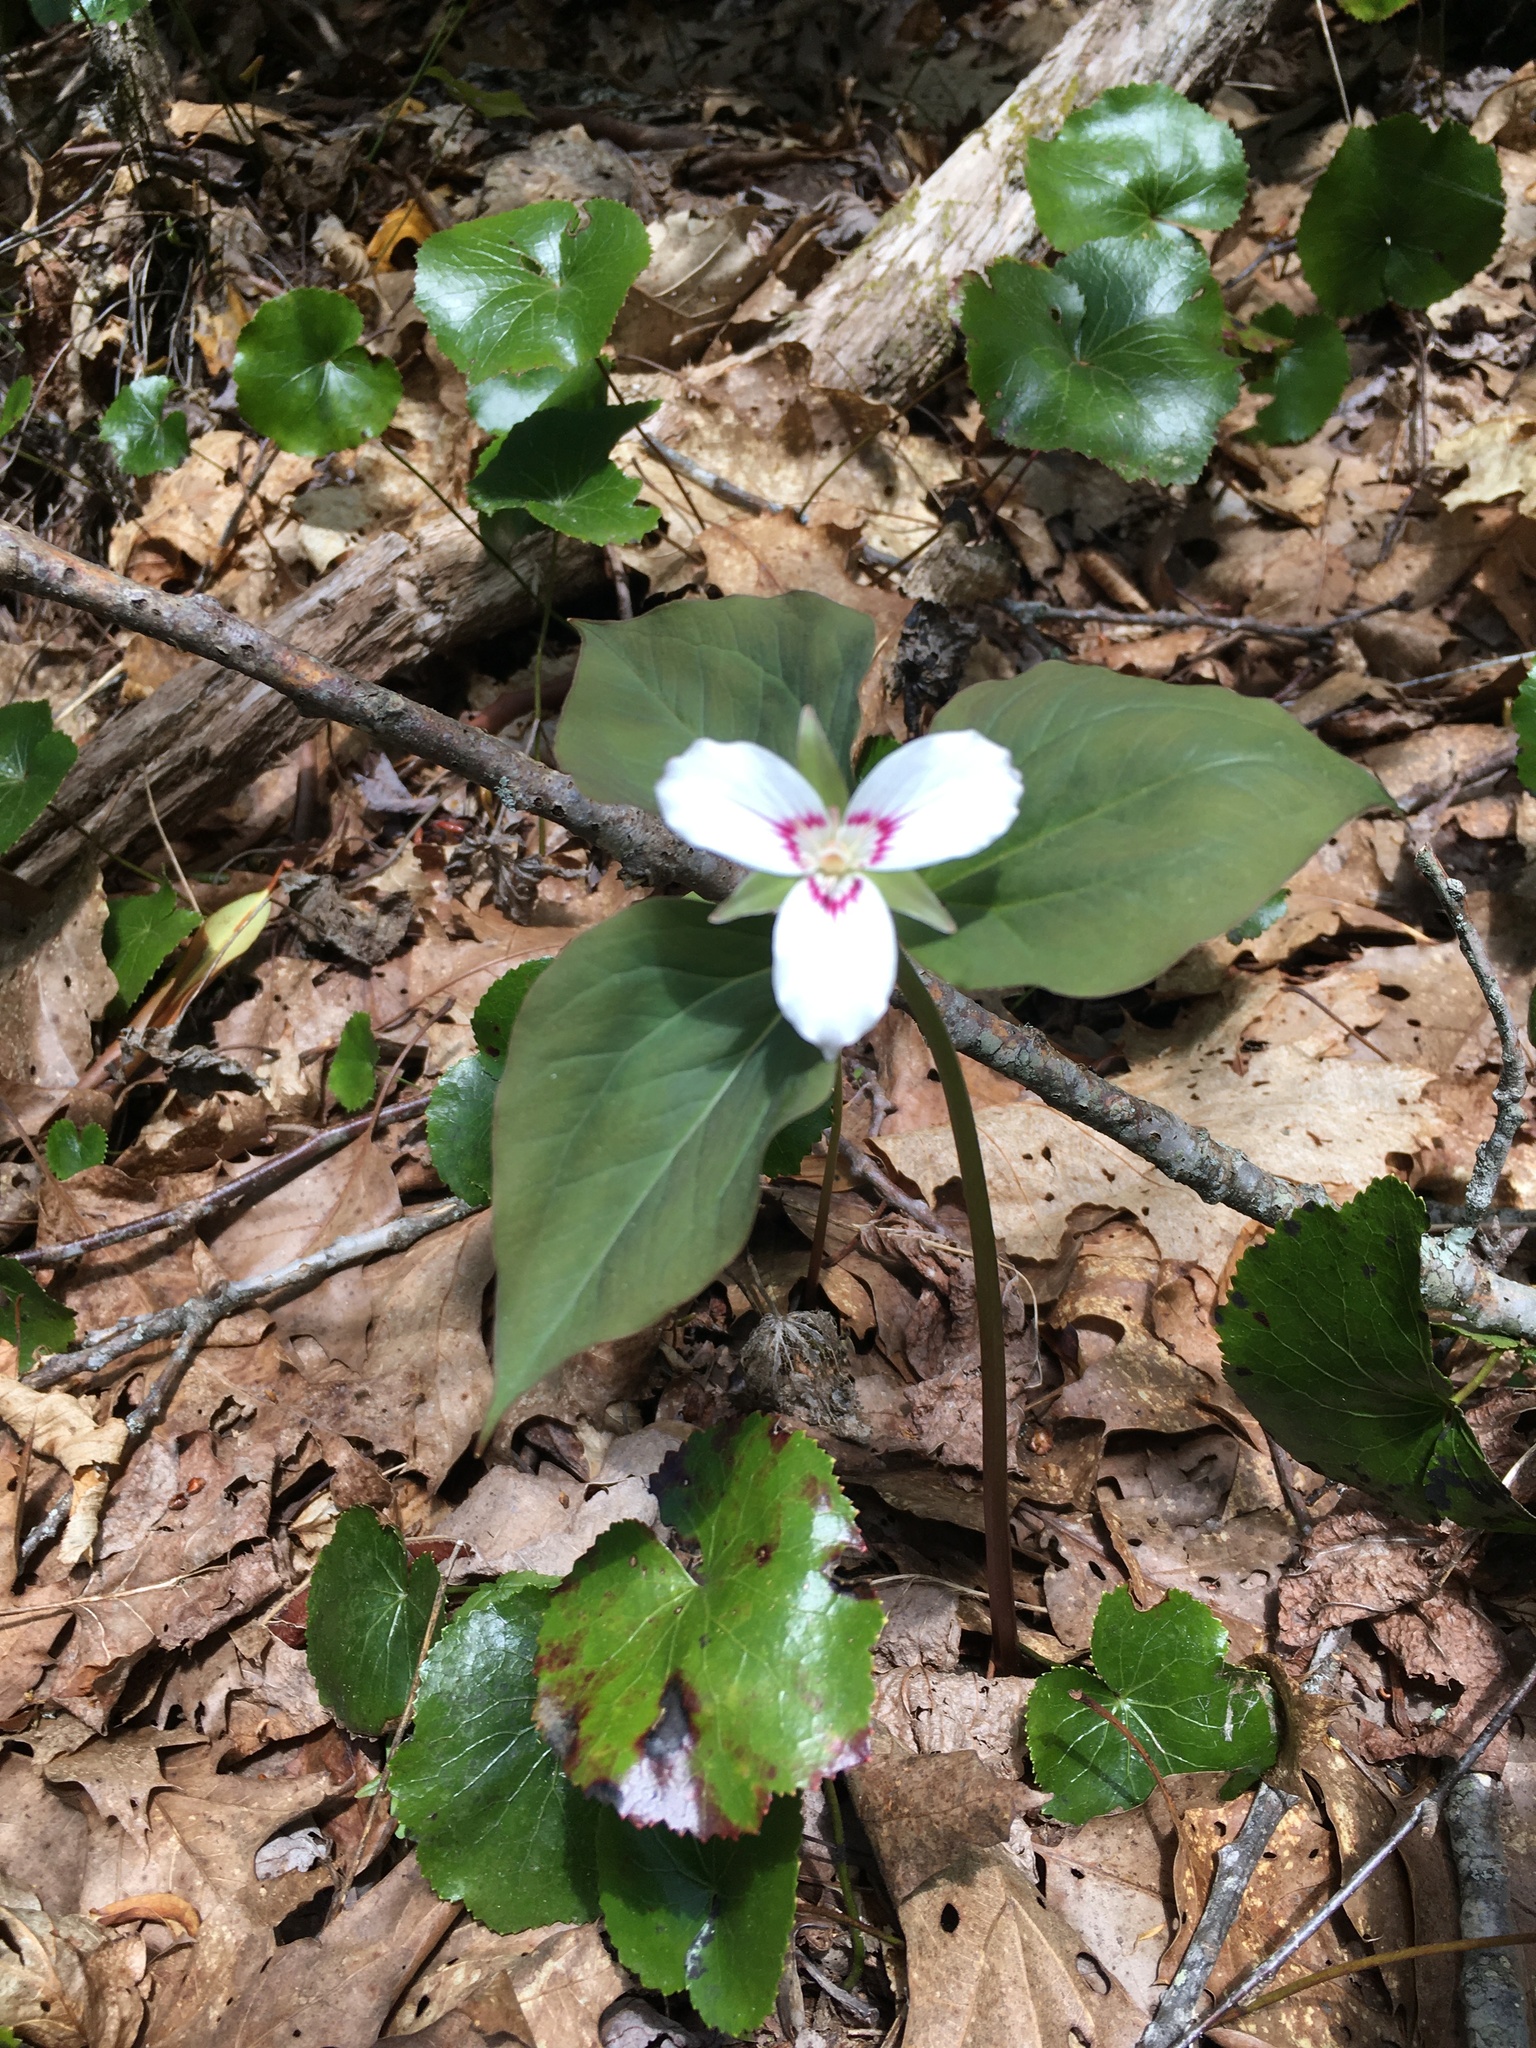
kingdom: Plantae
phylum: Tracheophyta
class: Liliopsida
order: Liliales
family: Melanthiaceae
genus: Trillium
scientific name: Trillium undulatum
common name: Paint trillium
